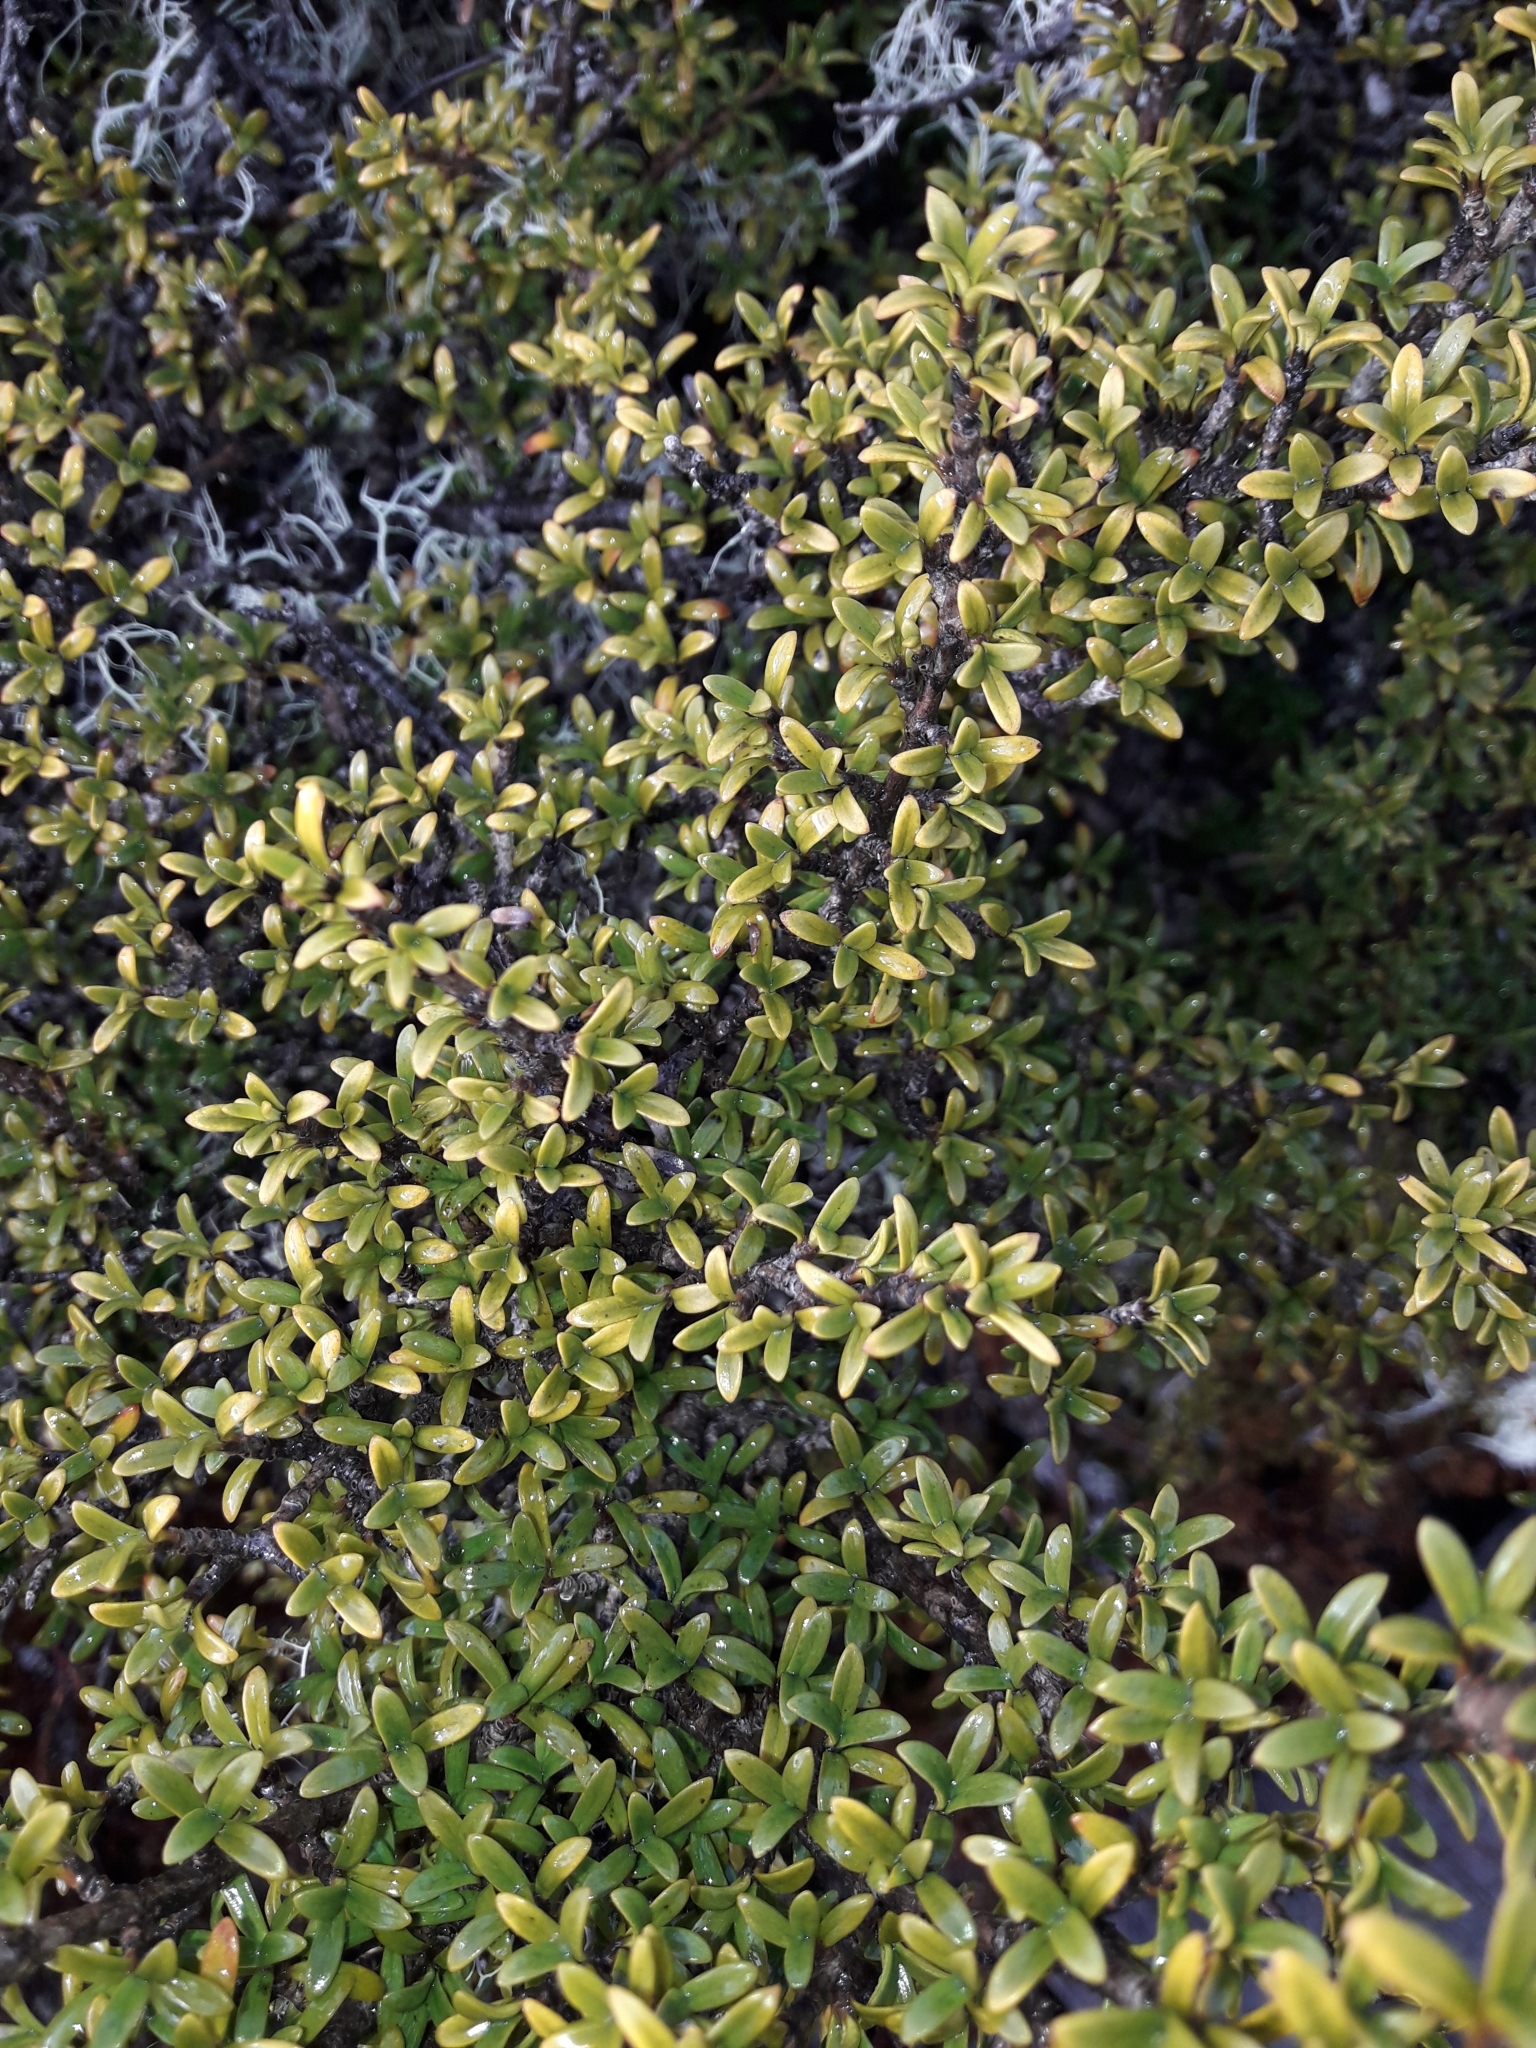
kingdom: Plantae
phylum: Tracheophyta
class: Magnoliopsida
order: Gentianales
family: Rubiaceae
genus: Coprosma
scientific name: Coprosma pseudocuneata
